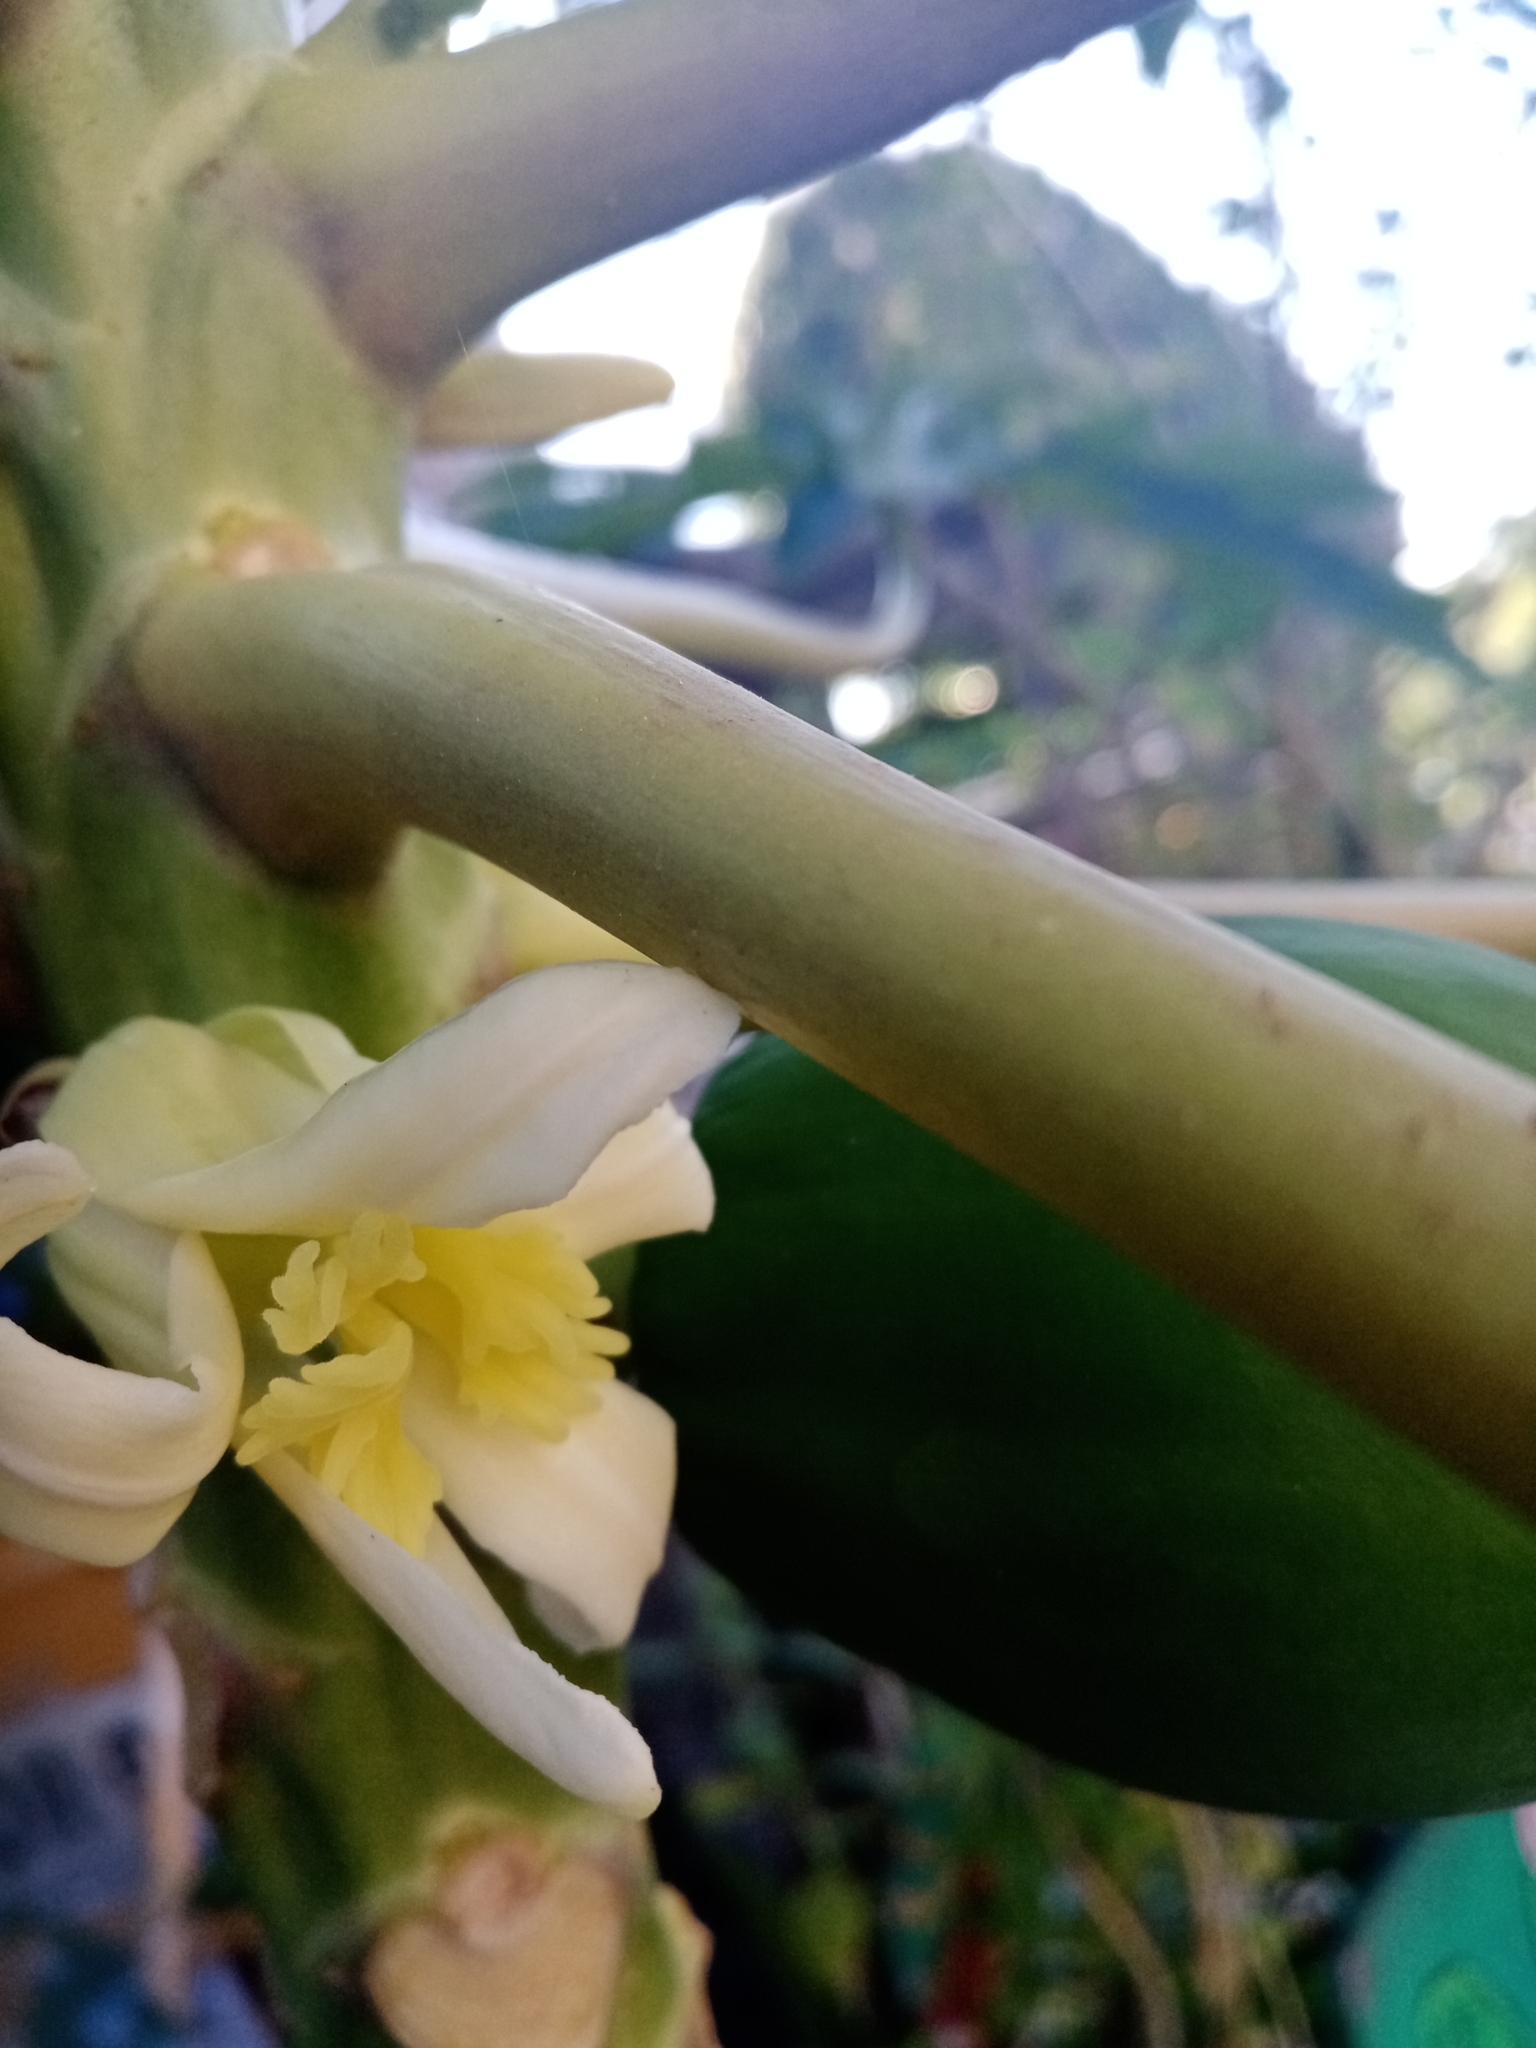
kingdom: Plantae
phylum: Tracheophyta
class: Magnoliopsida
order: Brassicales
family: Caricaceae
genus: Carica
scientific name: Carica papaya
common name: Papaya
